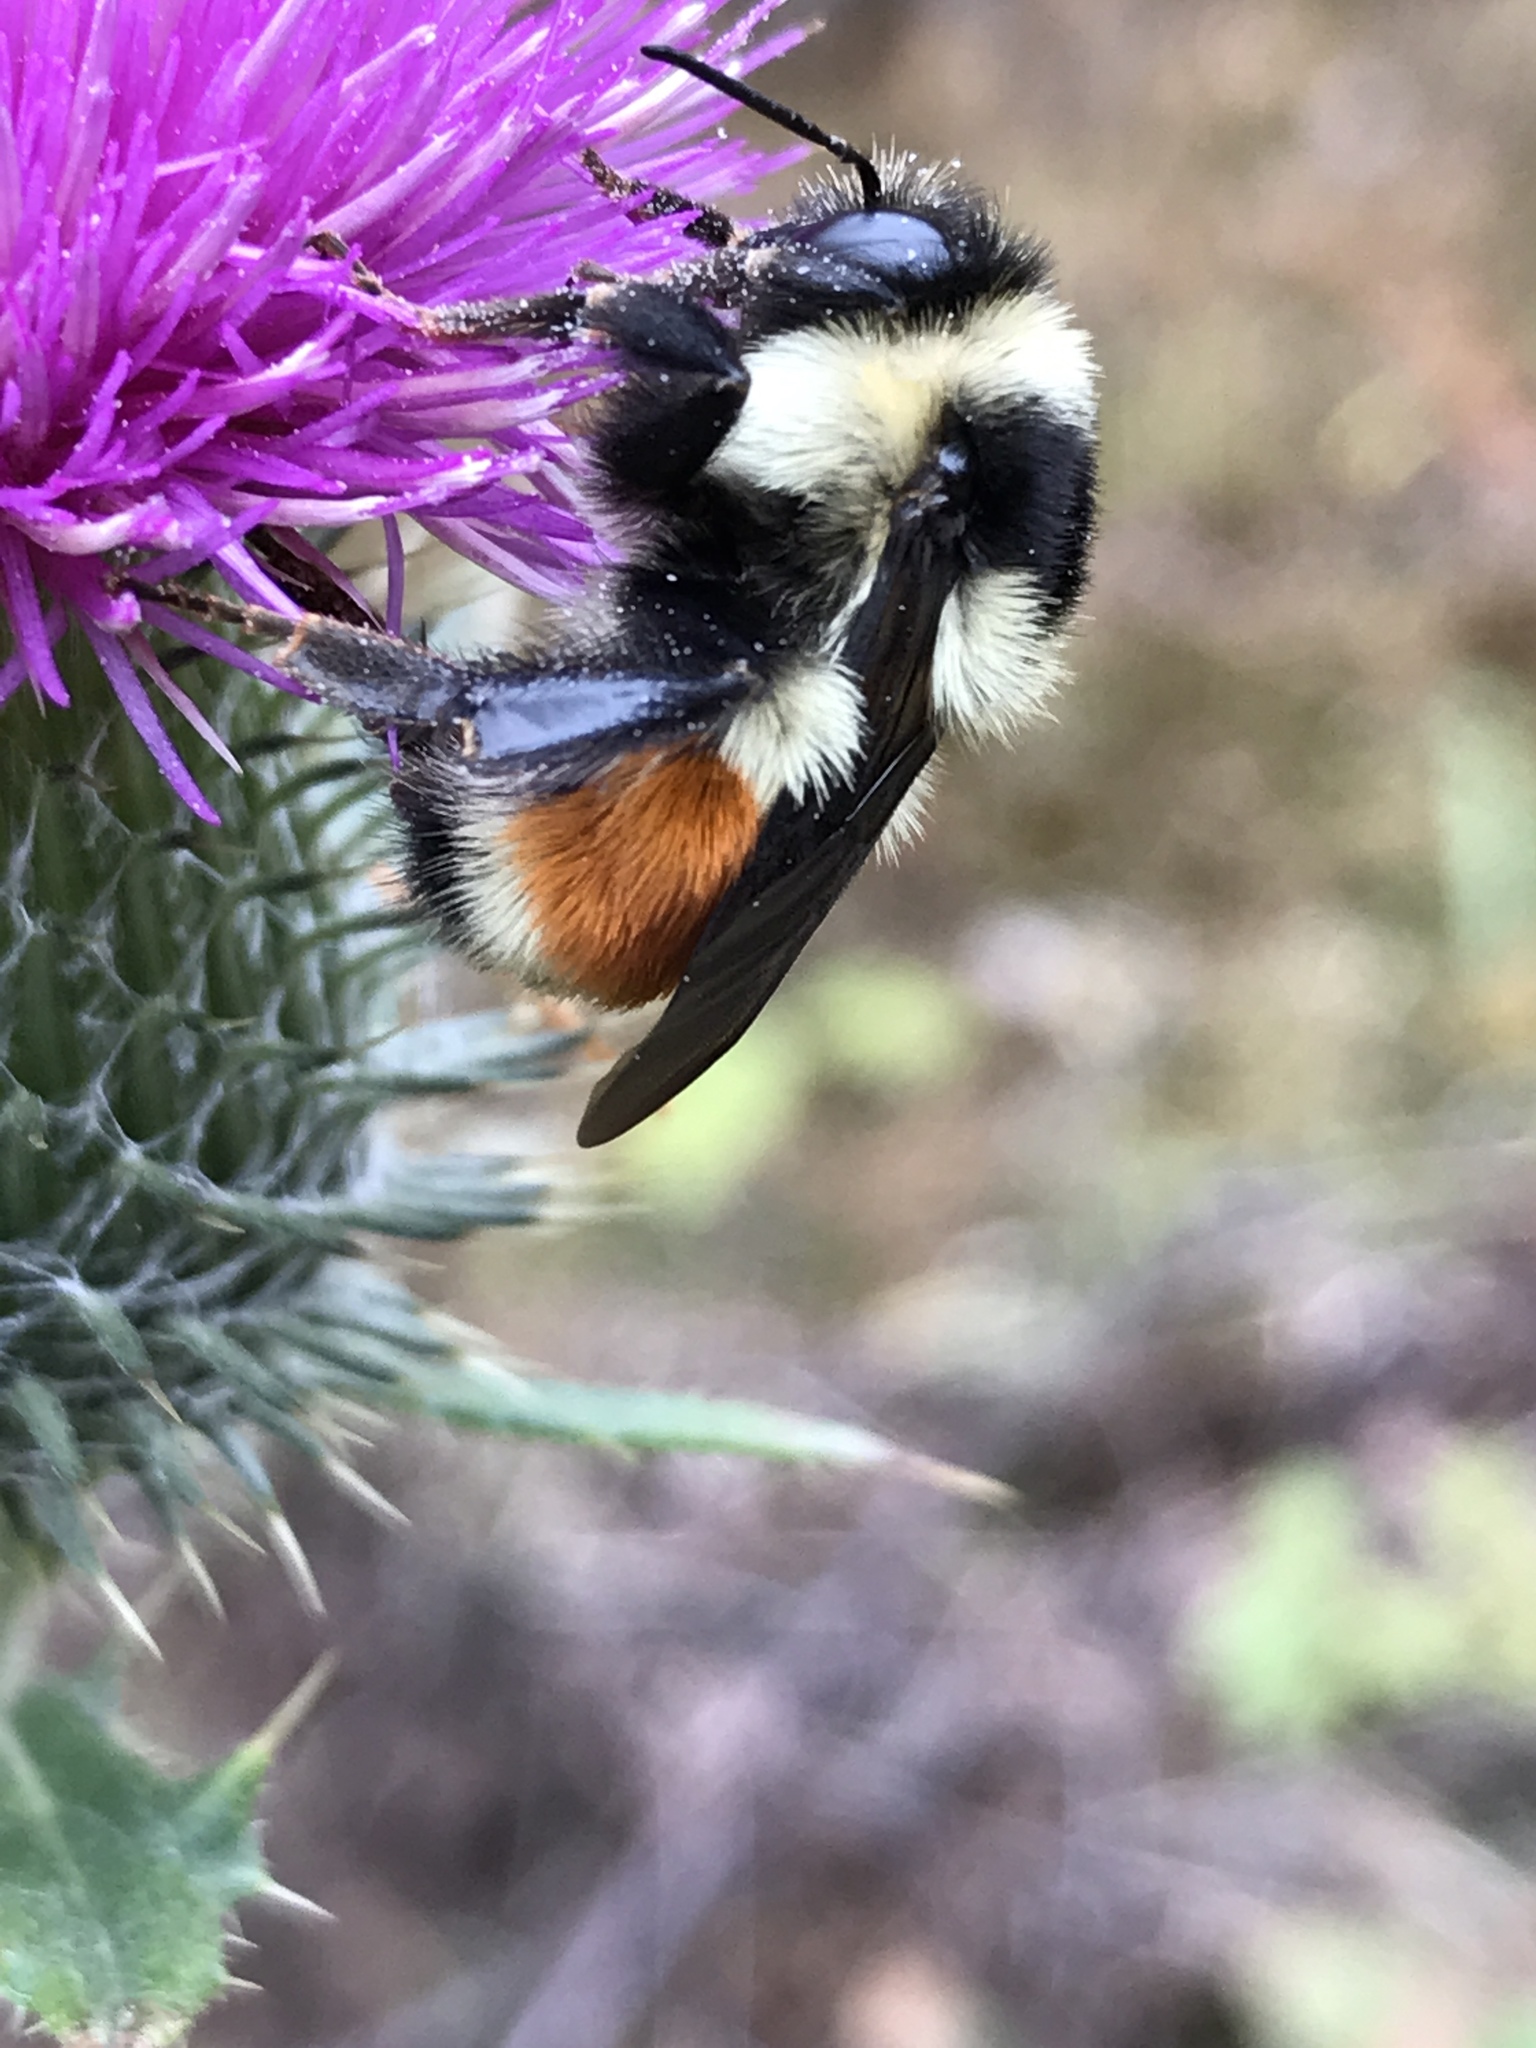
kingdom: Animalia
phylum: Arthropoda
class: Insecta
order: Hymenoptera
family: Apidae
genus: Bombus
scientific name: Bombus ternarius
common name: Tri-colored bumble bee
